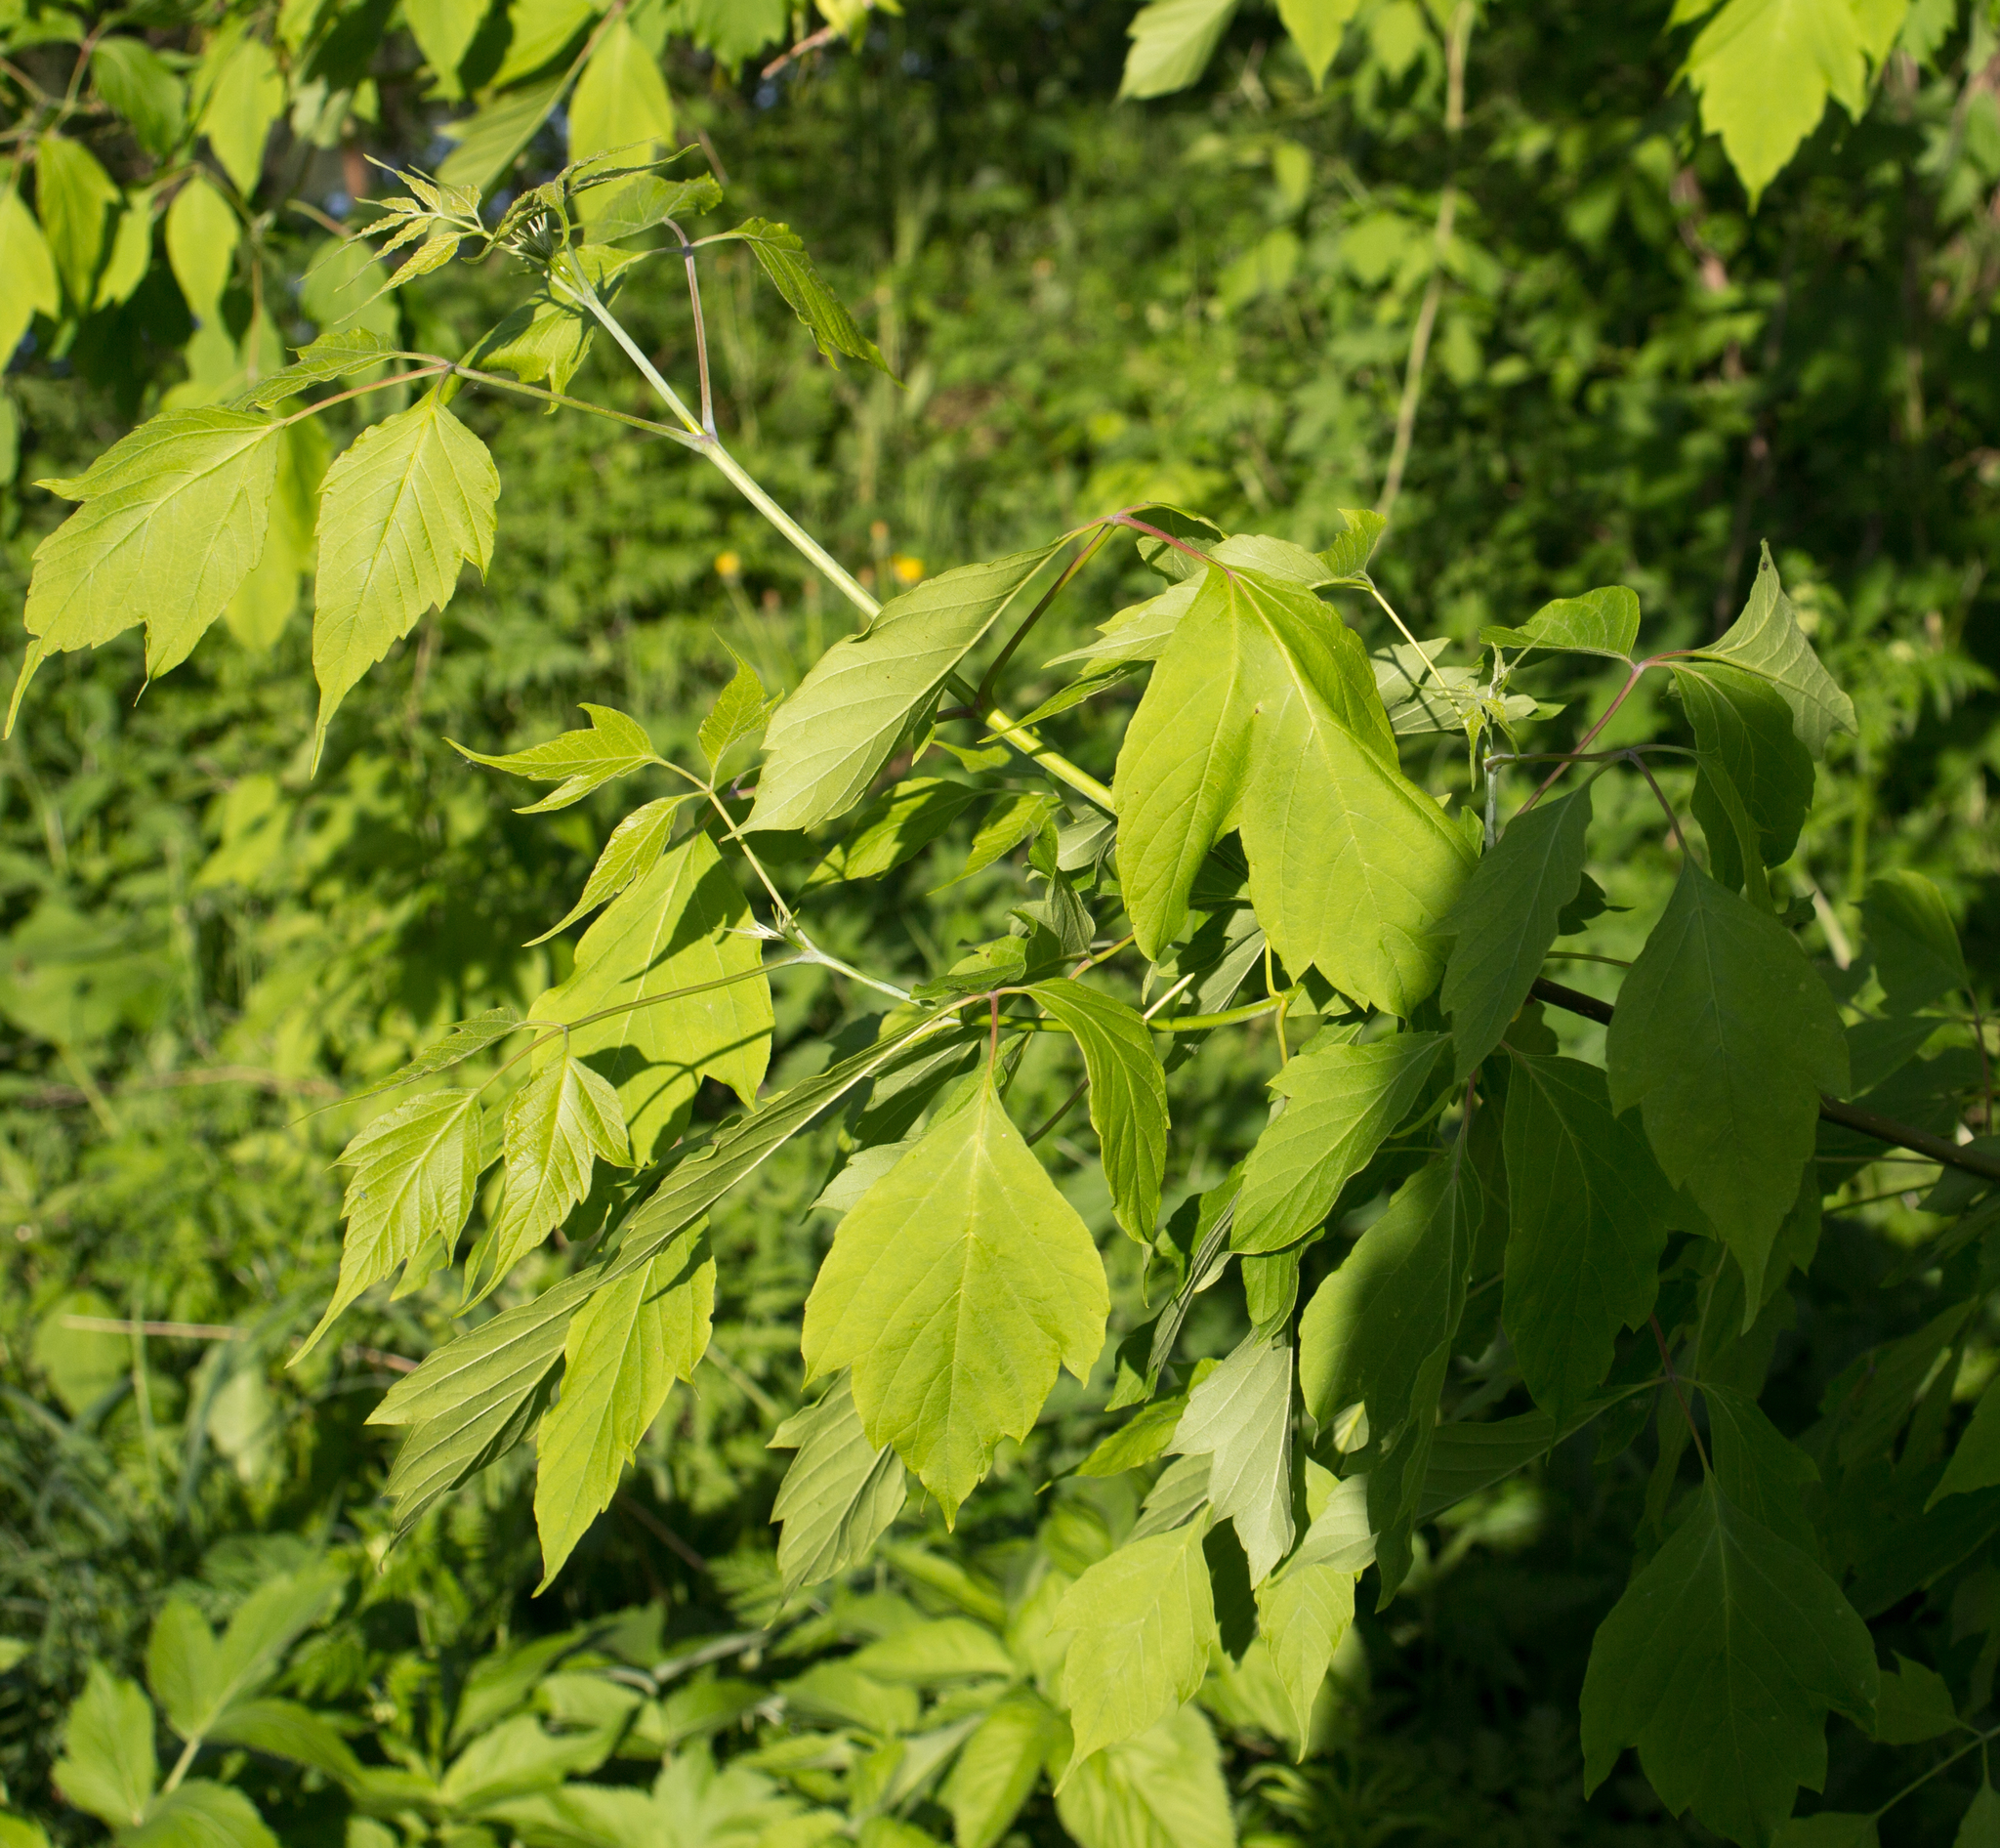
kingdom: Plantae
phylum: Tracheophyta
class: Magnoliopsida
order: Sapindales
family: Sapindaceae
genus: Acer
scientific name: Acer negundo
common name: Ashleaf maple
